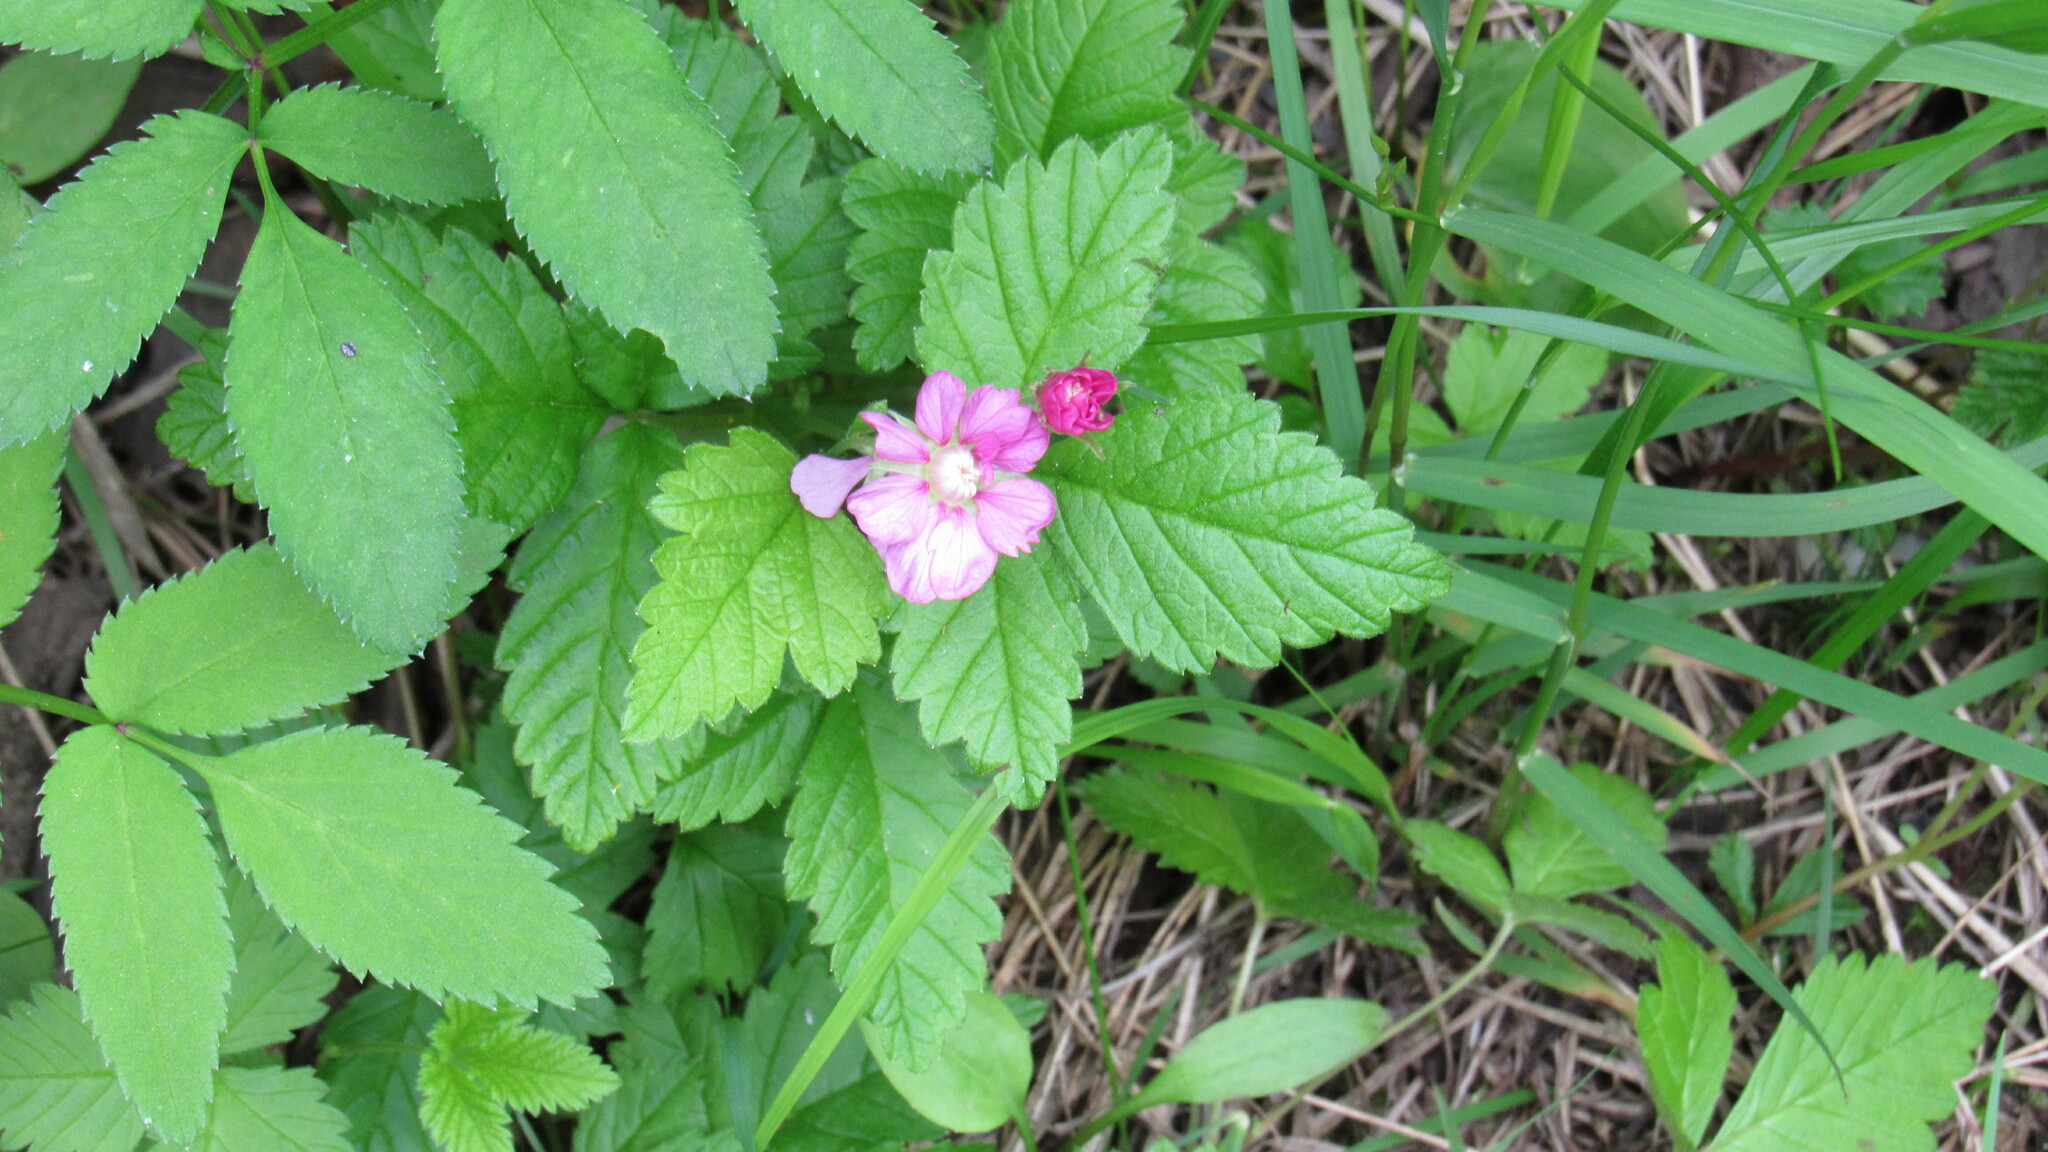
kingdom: Plantae
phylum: Tracheophyta
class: Magnoliopsida
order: Rosales
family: Rosaceae
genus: Rubus
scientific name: Rubus arcticus
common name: Arctic bramble
